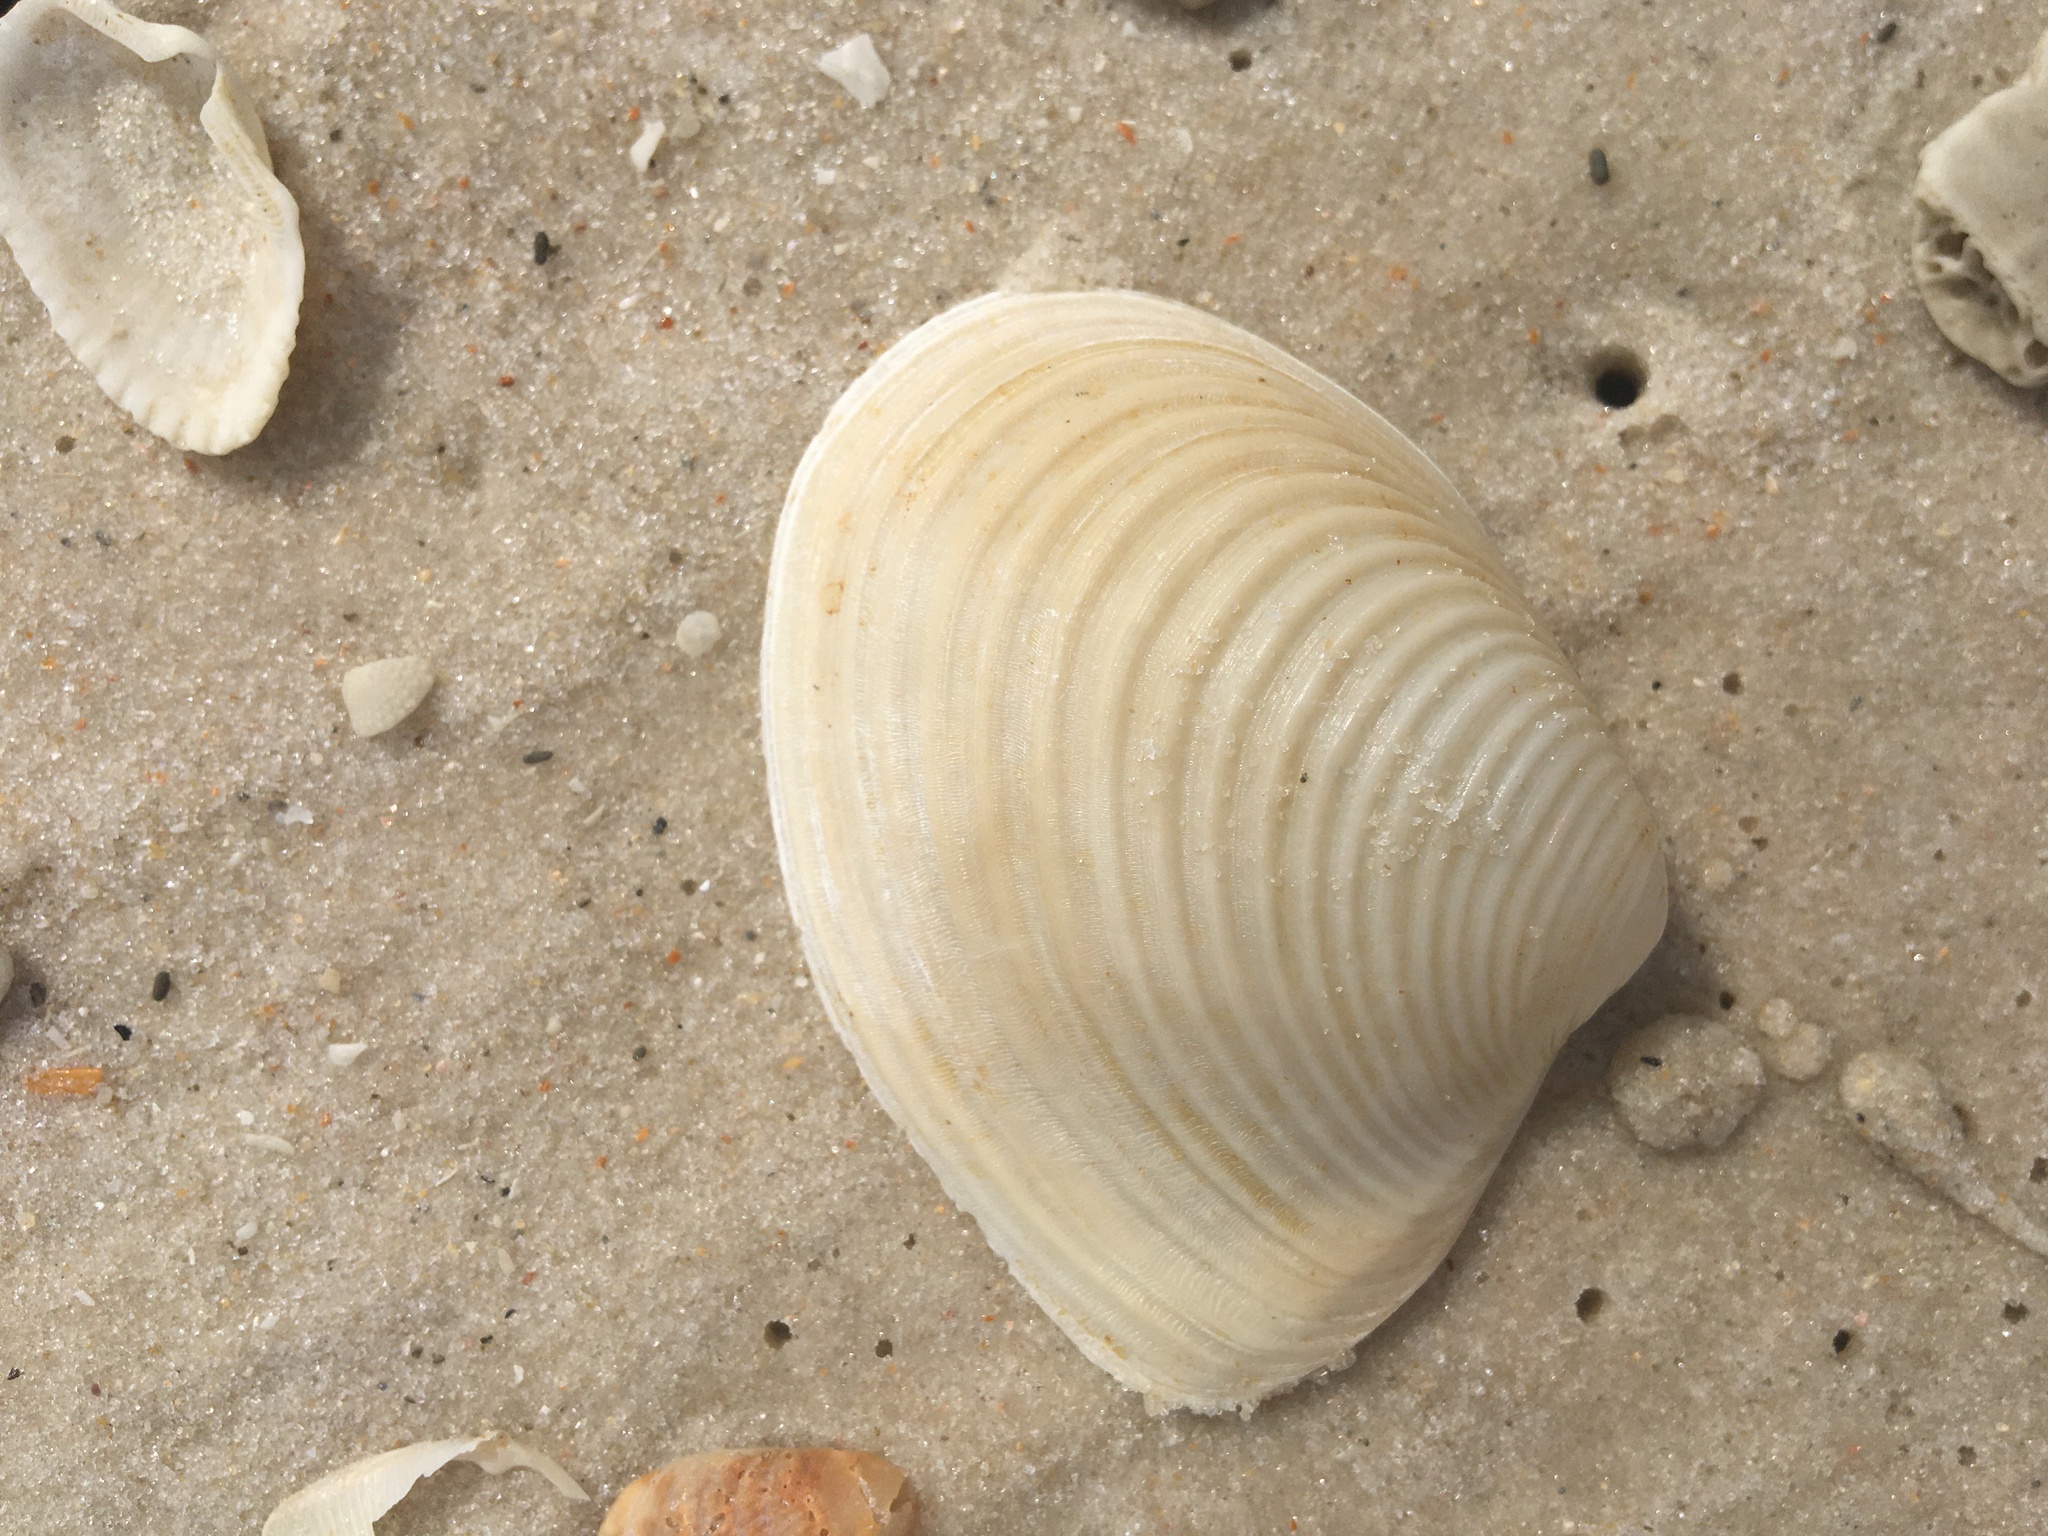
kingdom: Animalia
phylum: Mollusca
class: Bivalvia
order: Venerida
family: Anatinellidae
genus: Raeta
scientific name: Raeta plicatella
